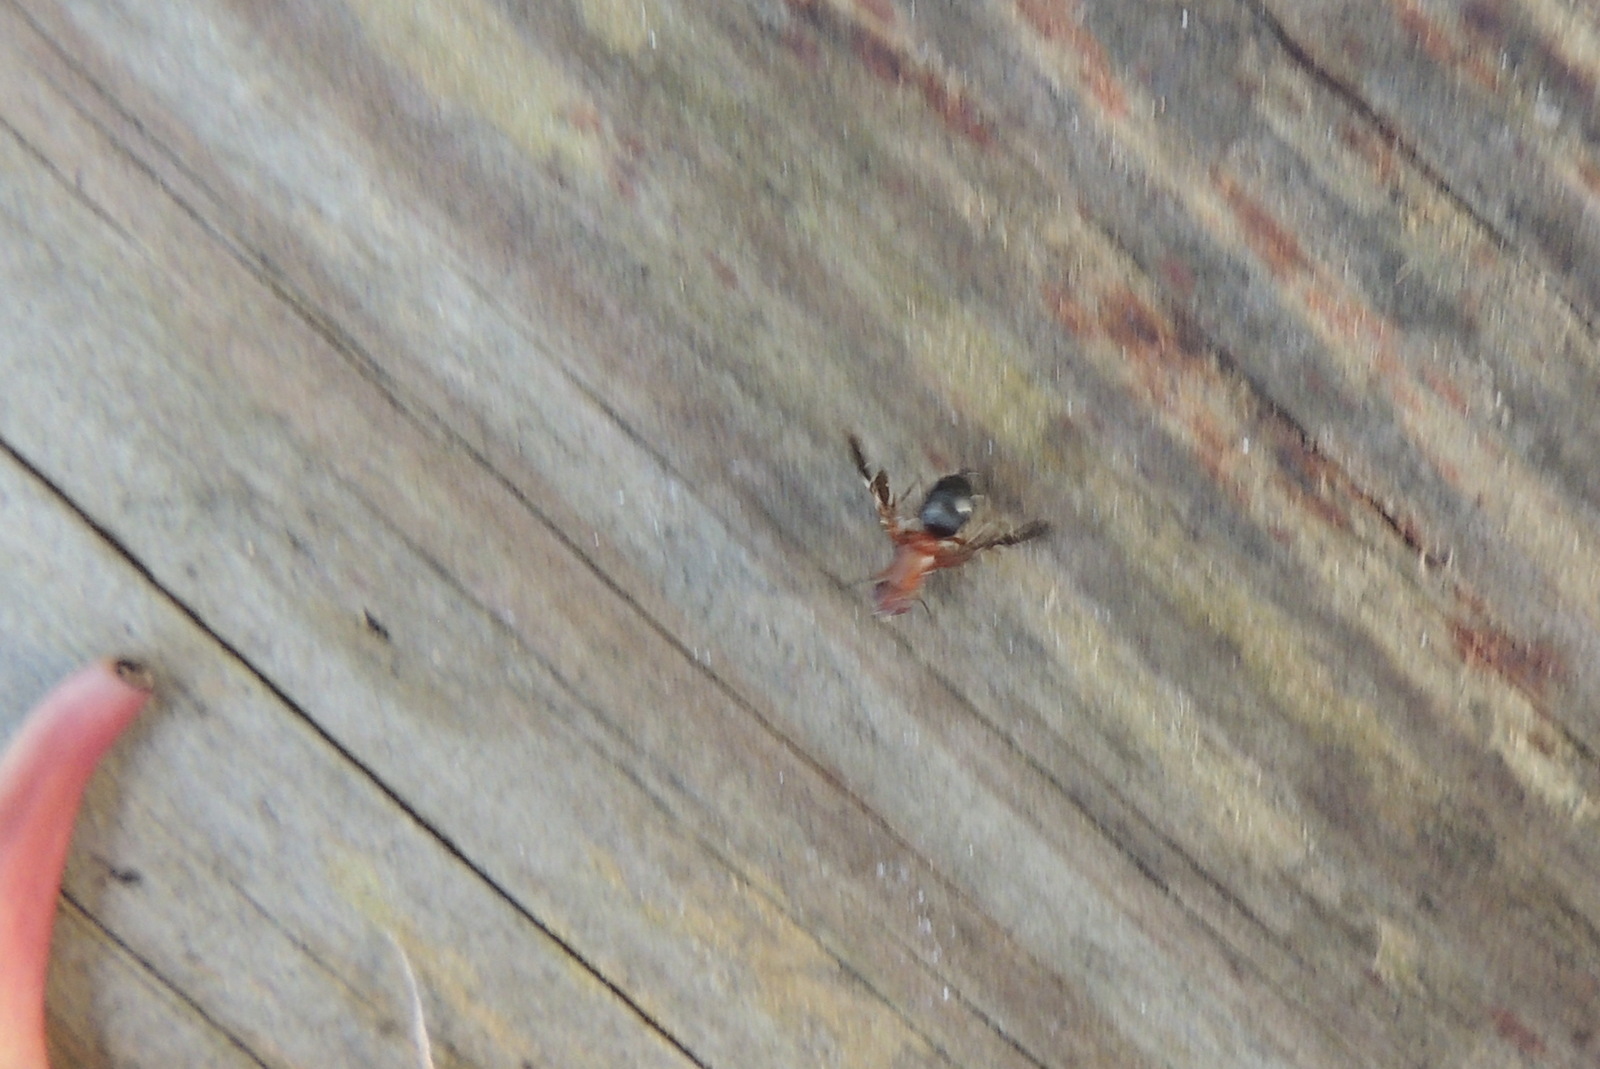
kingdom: Animalia
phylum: Arthropoda
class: Insecta
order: Diptera
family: Ulidiidae
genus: Delphinia
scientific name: Delphinia picta
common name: Common picture-winged fly
